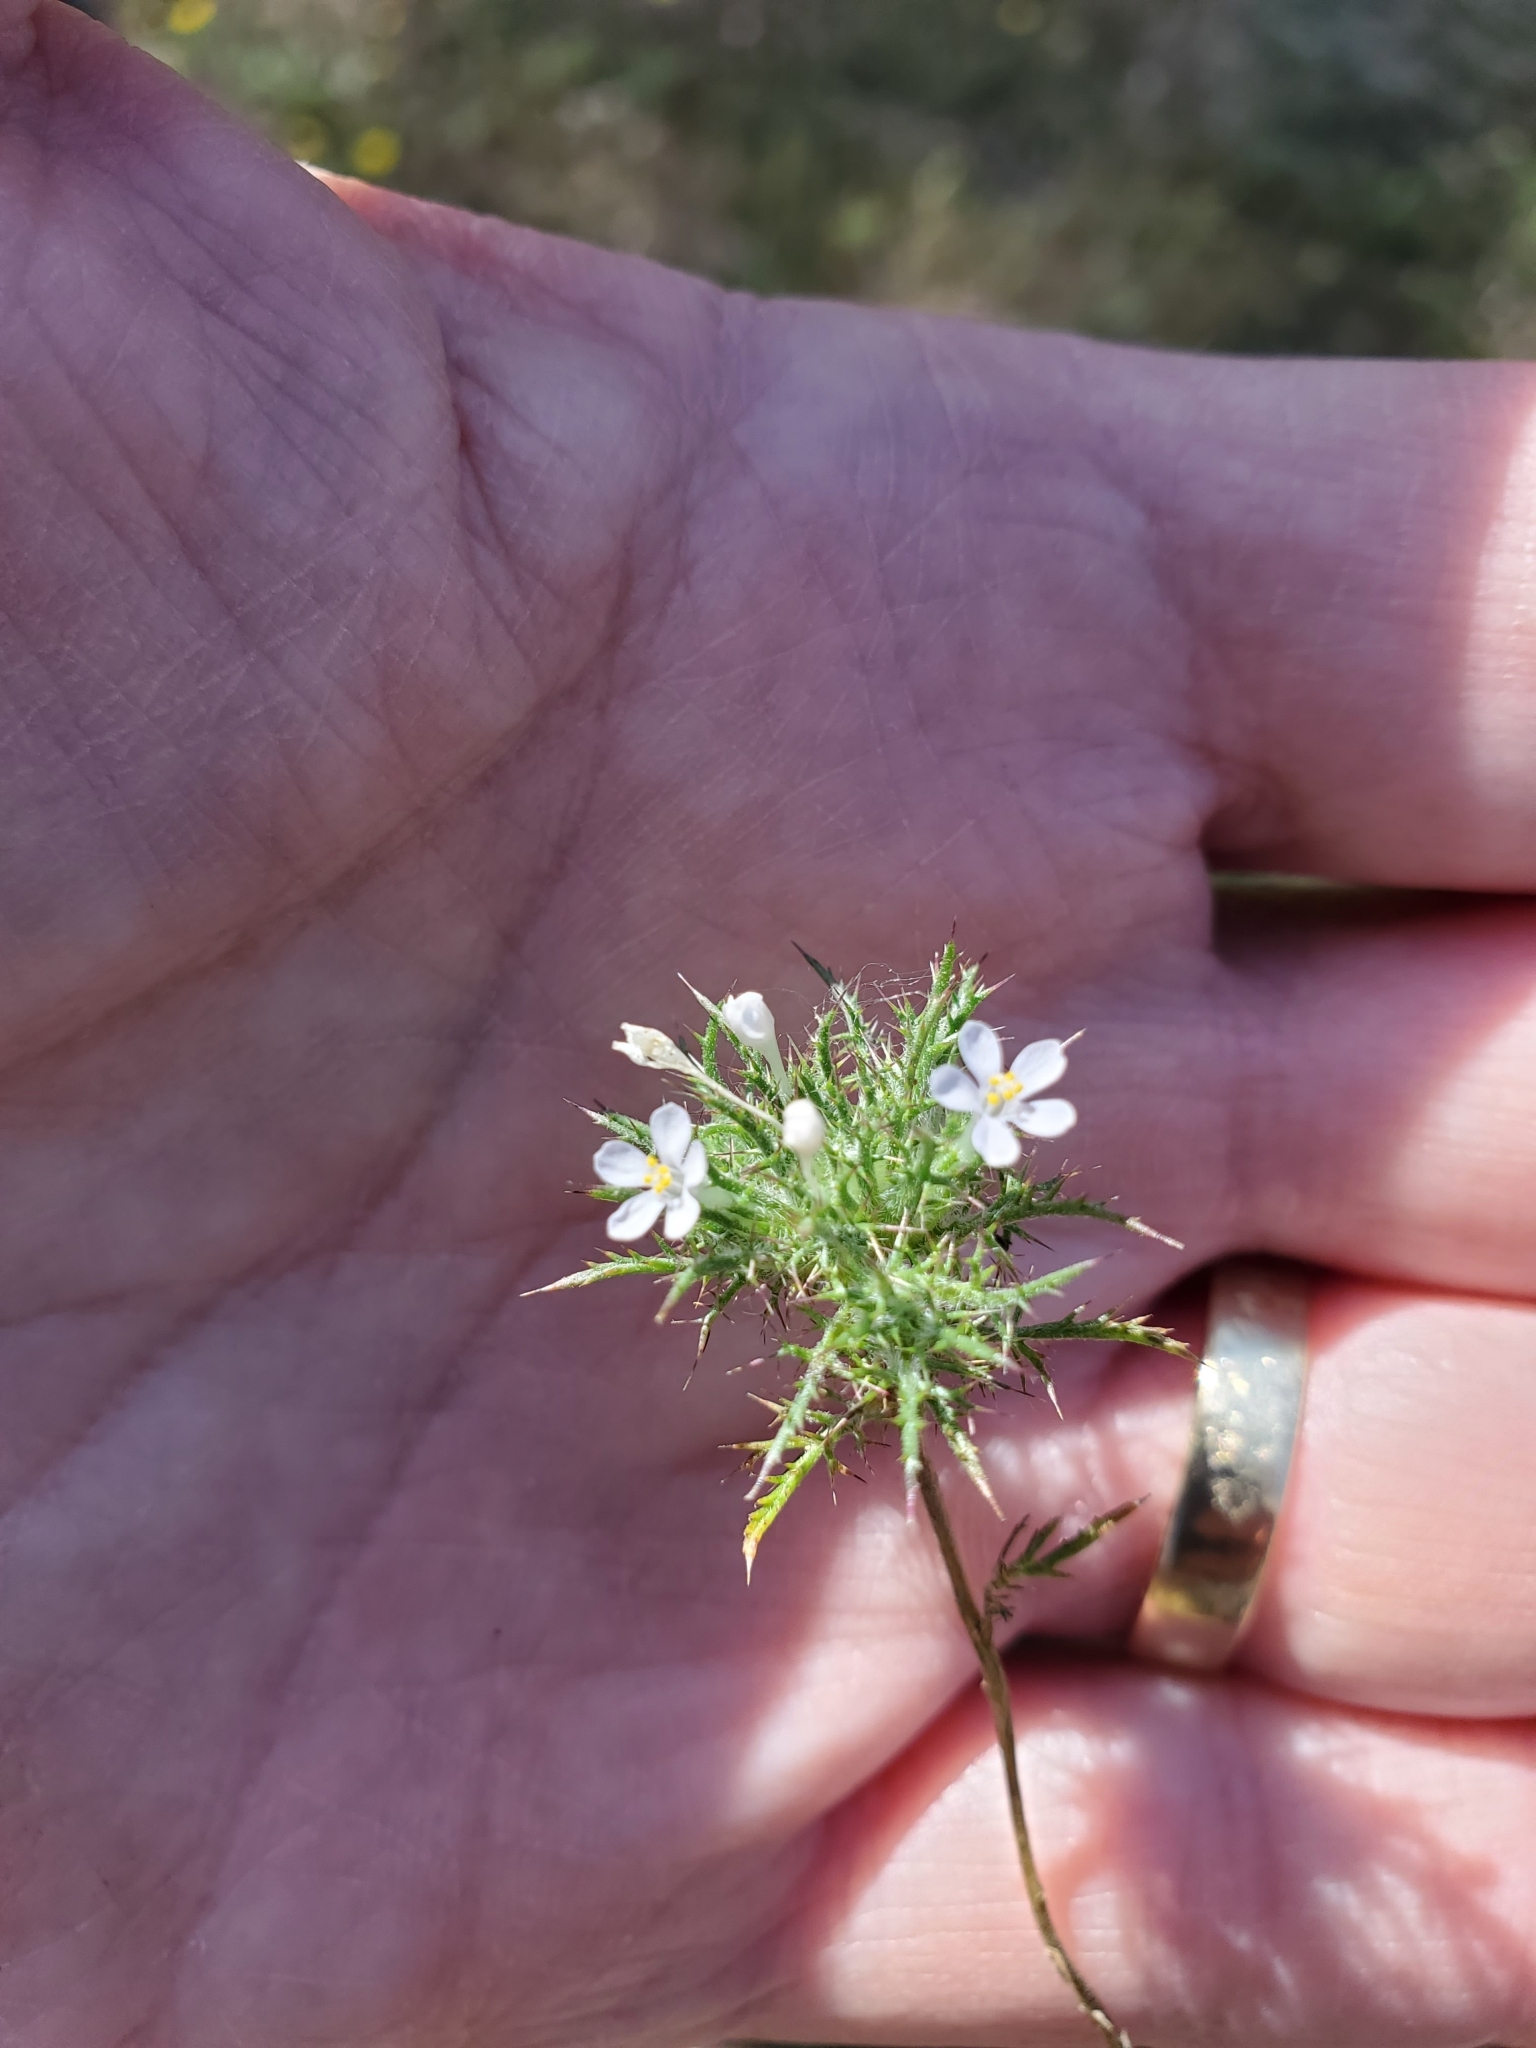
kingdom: Plantae
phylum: Tracheophyta
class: Magnoliopsida
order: Ericales
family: Polemoniaceae
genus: Navarretia
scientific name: Navarretia tagetina
